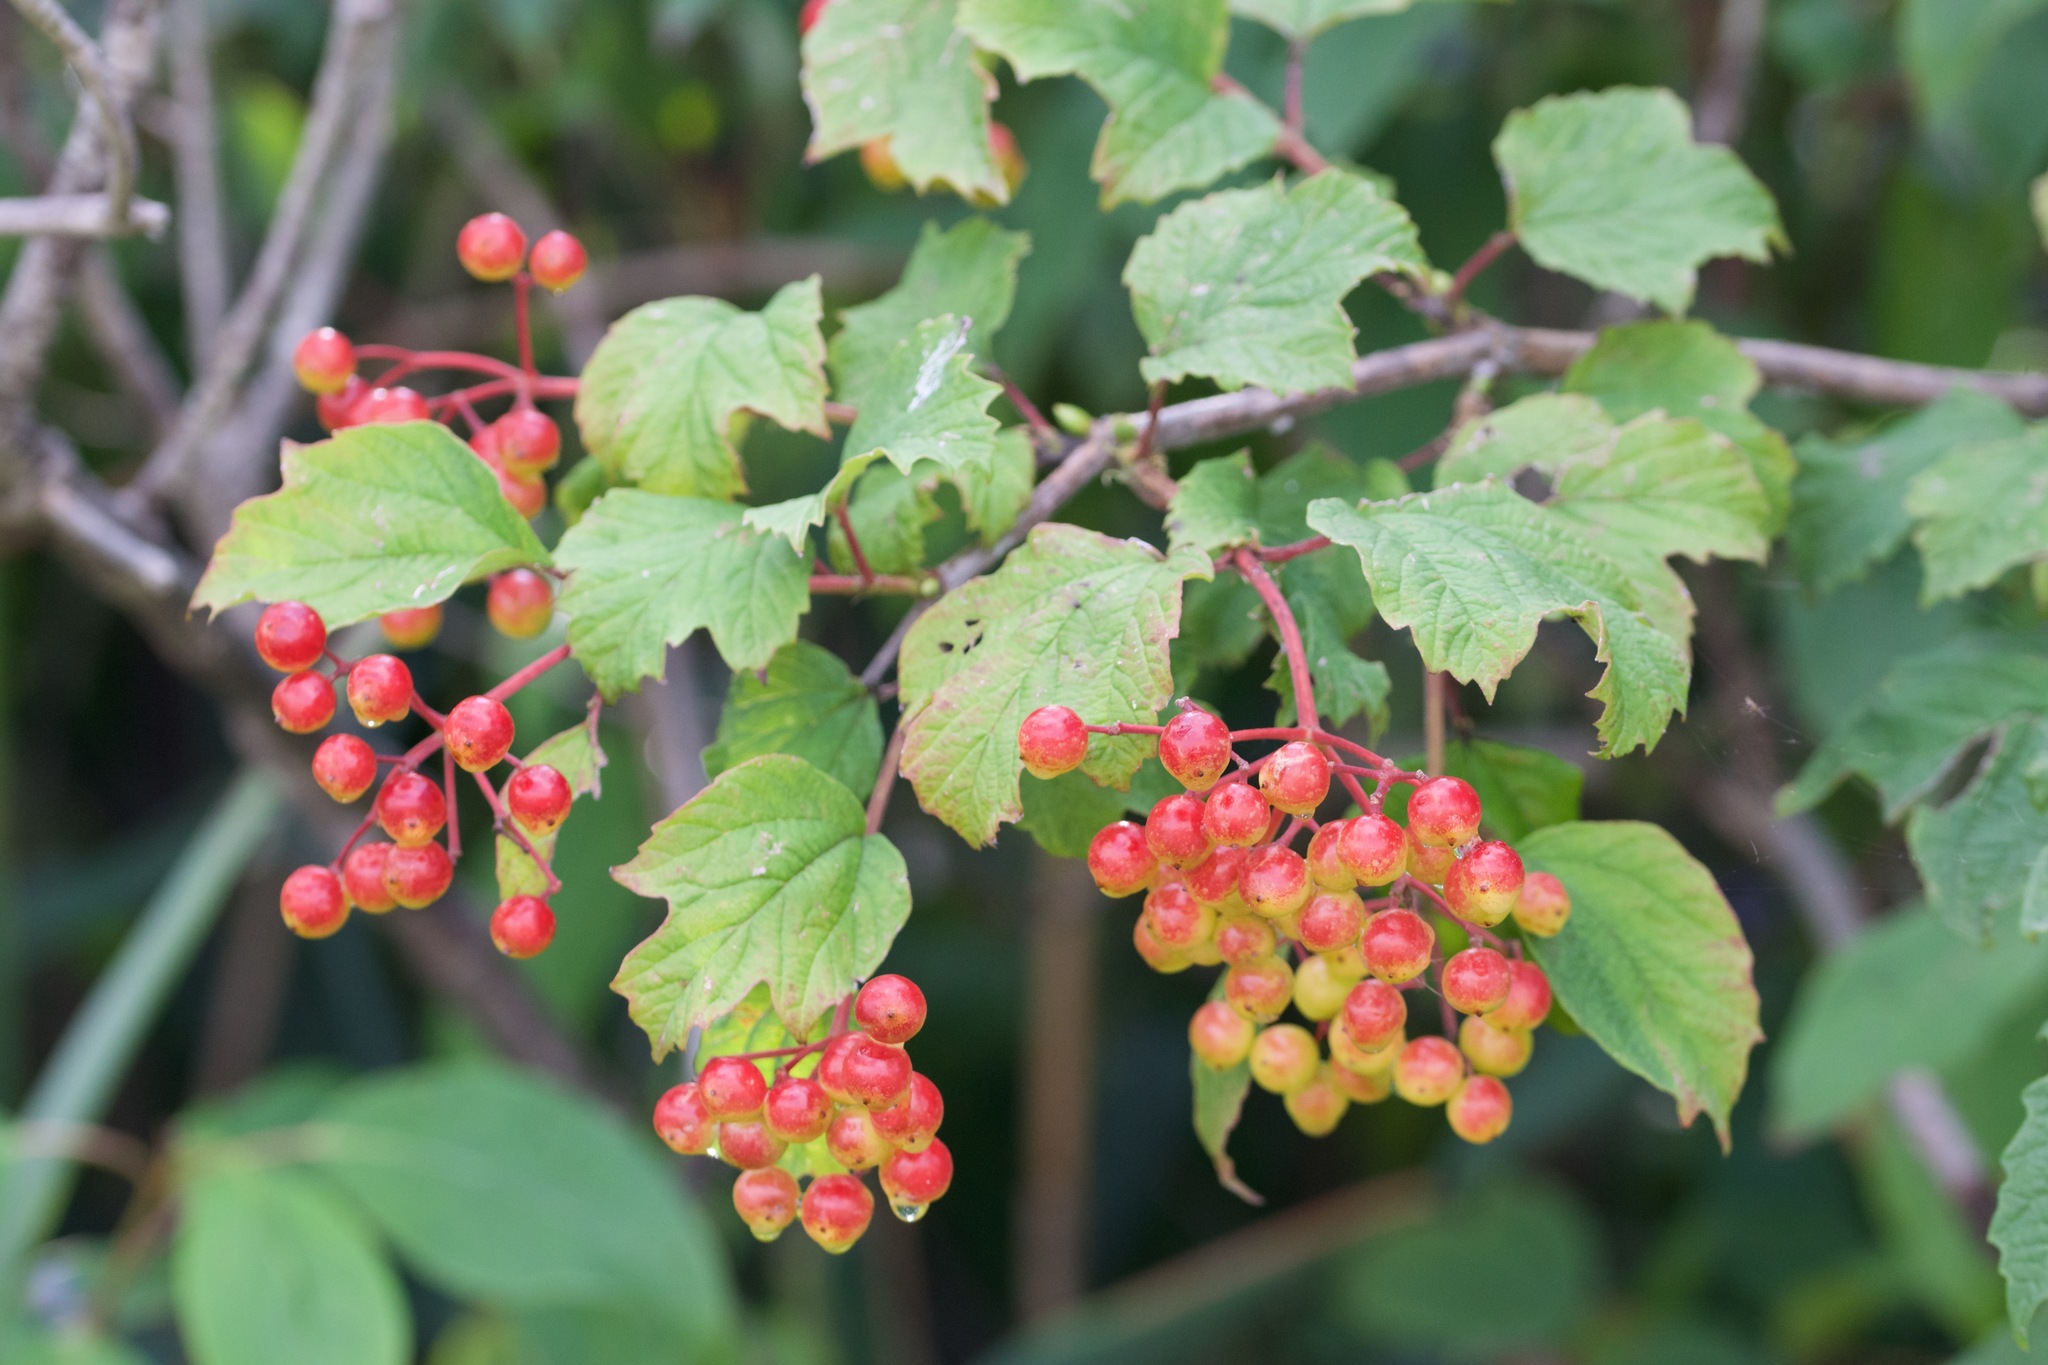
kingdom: Plantae
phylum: Tracheophyta
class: Magnoliopsida
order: Dipsacales
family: Viburnaceae
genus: Viburnum
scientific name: Viburnum opulus
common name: Guelder-rose
